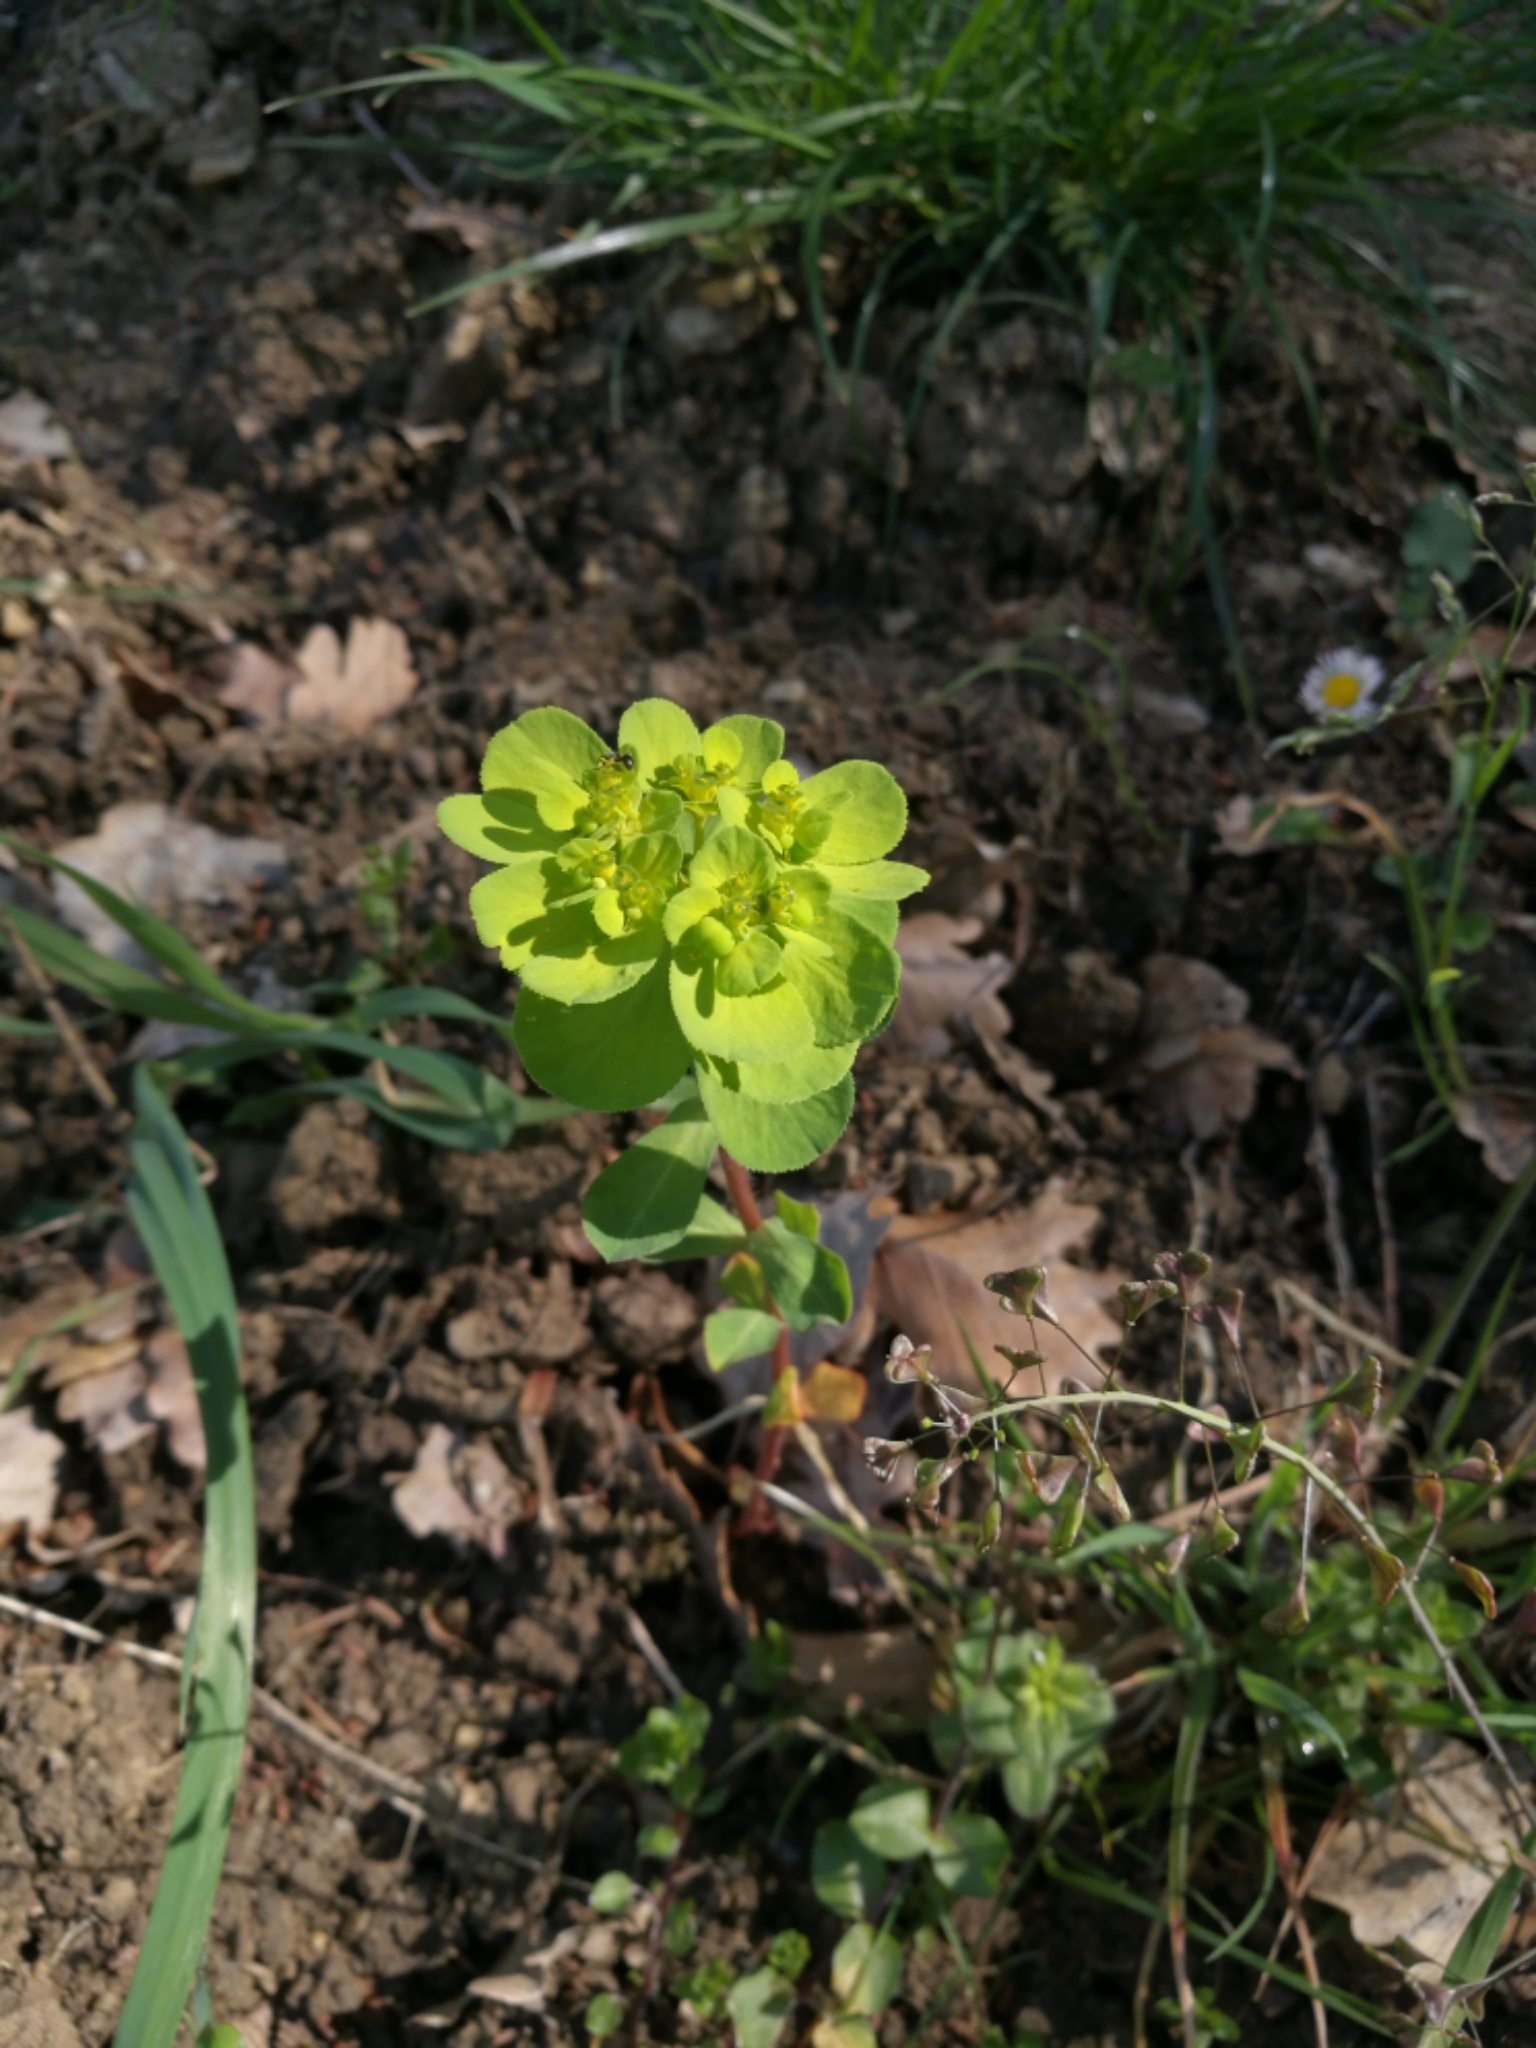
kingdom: Plantae
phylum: Tracheophyta
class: Magnoliopsida
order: Malpighiales
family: Euphorbiaceae
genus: Euphorbia
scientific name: Euphorbia helioscopia
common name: Sun spurge
